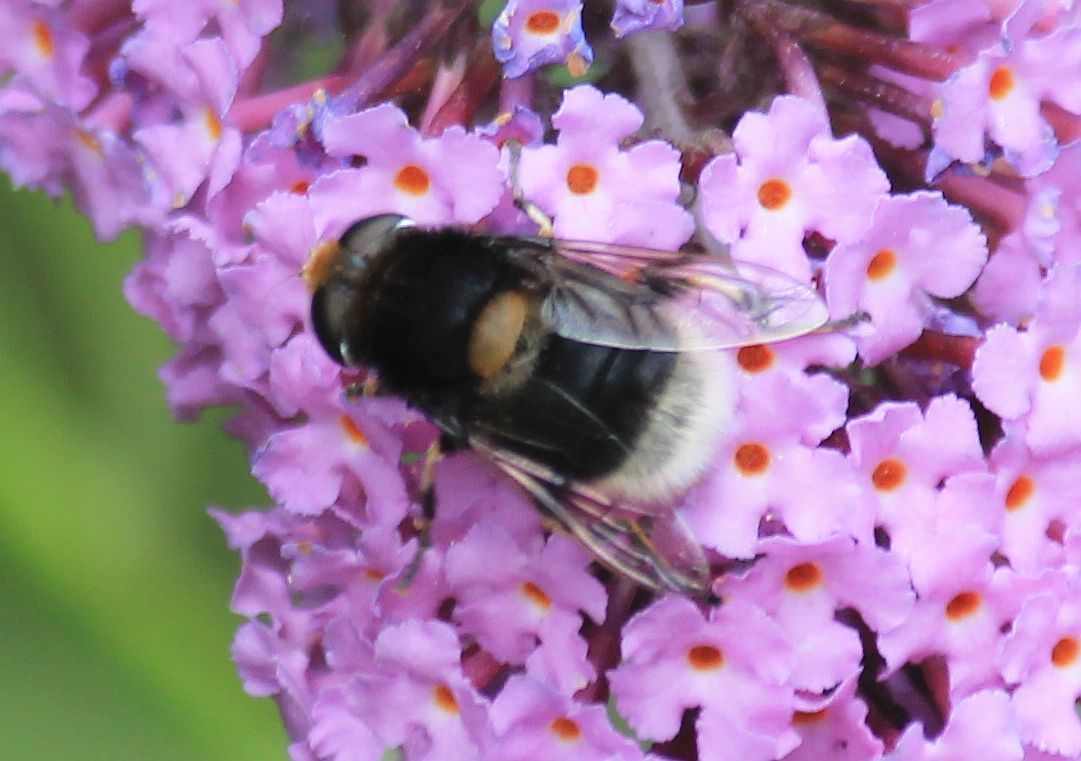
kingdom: Animalia
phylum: Arthropoda
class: Insecta
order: Diptera
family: Syrphidae
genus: Eristalis
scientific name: Eristalis intricaria
